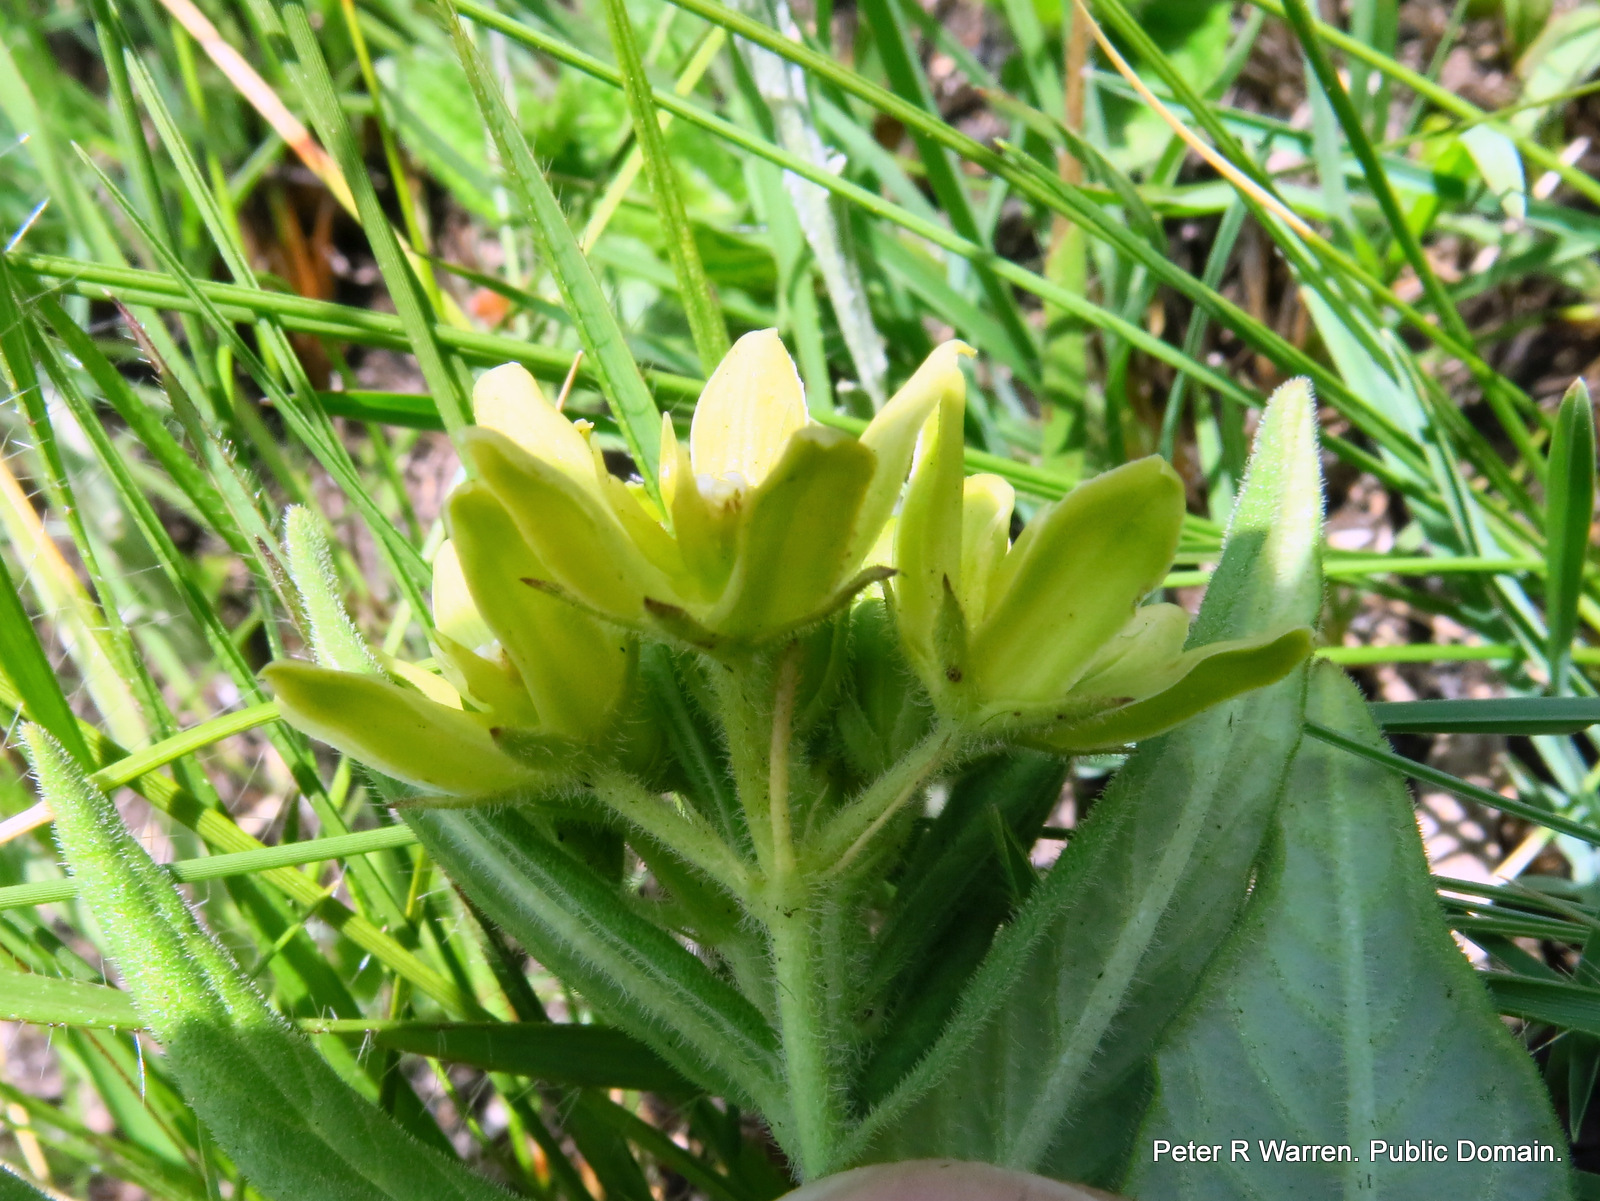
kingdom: Plantae
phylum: Tracheophyta
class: Magnoliopsida
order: Gentianales
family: Apocynaceae
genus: Schizoglossum
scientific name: Schizoglossum flavum
